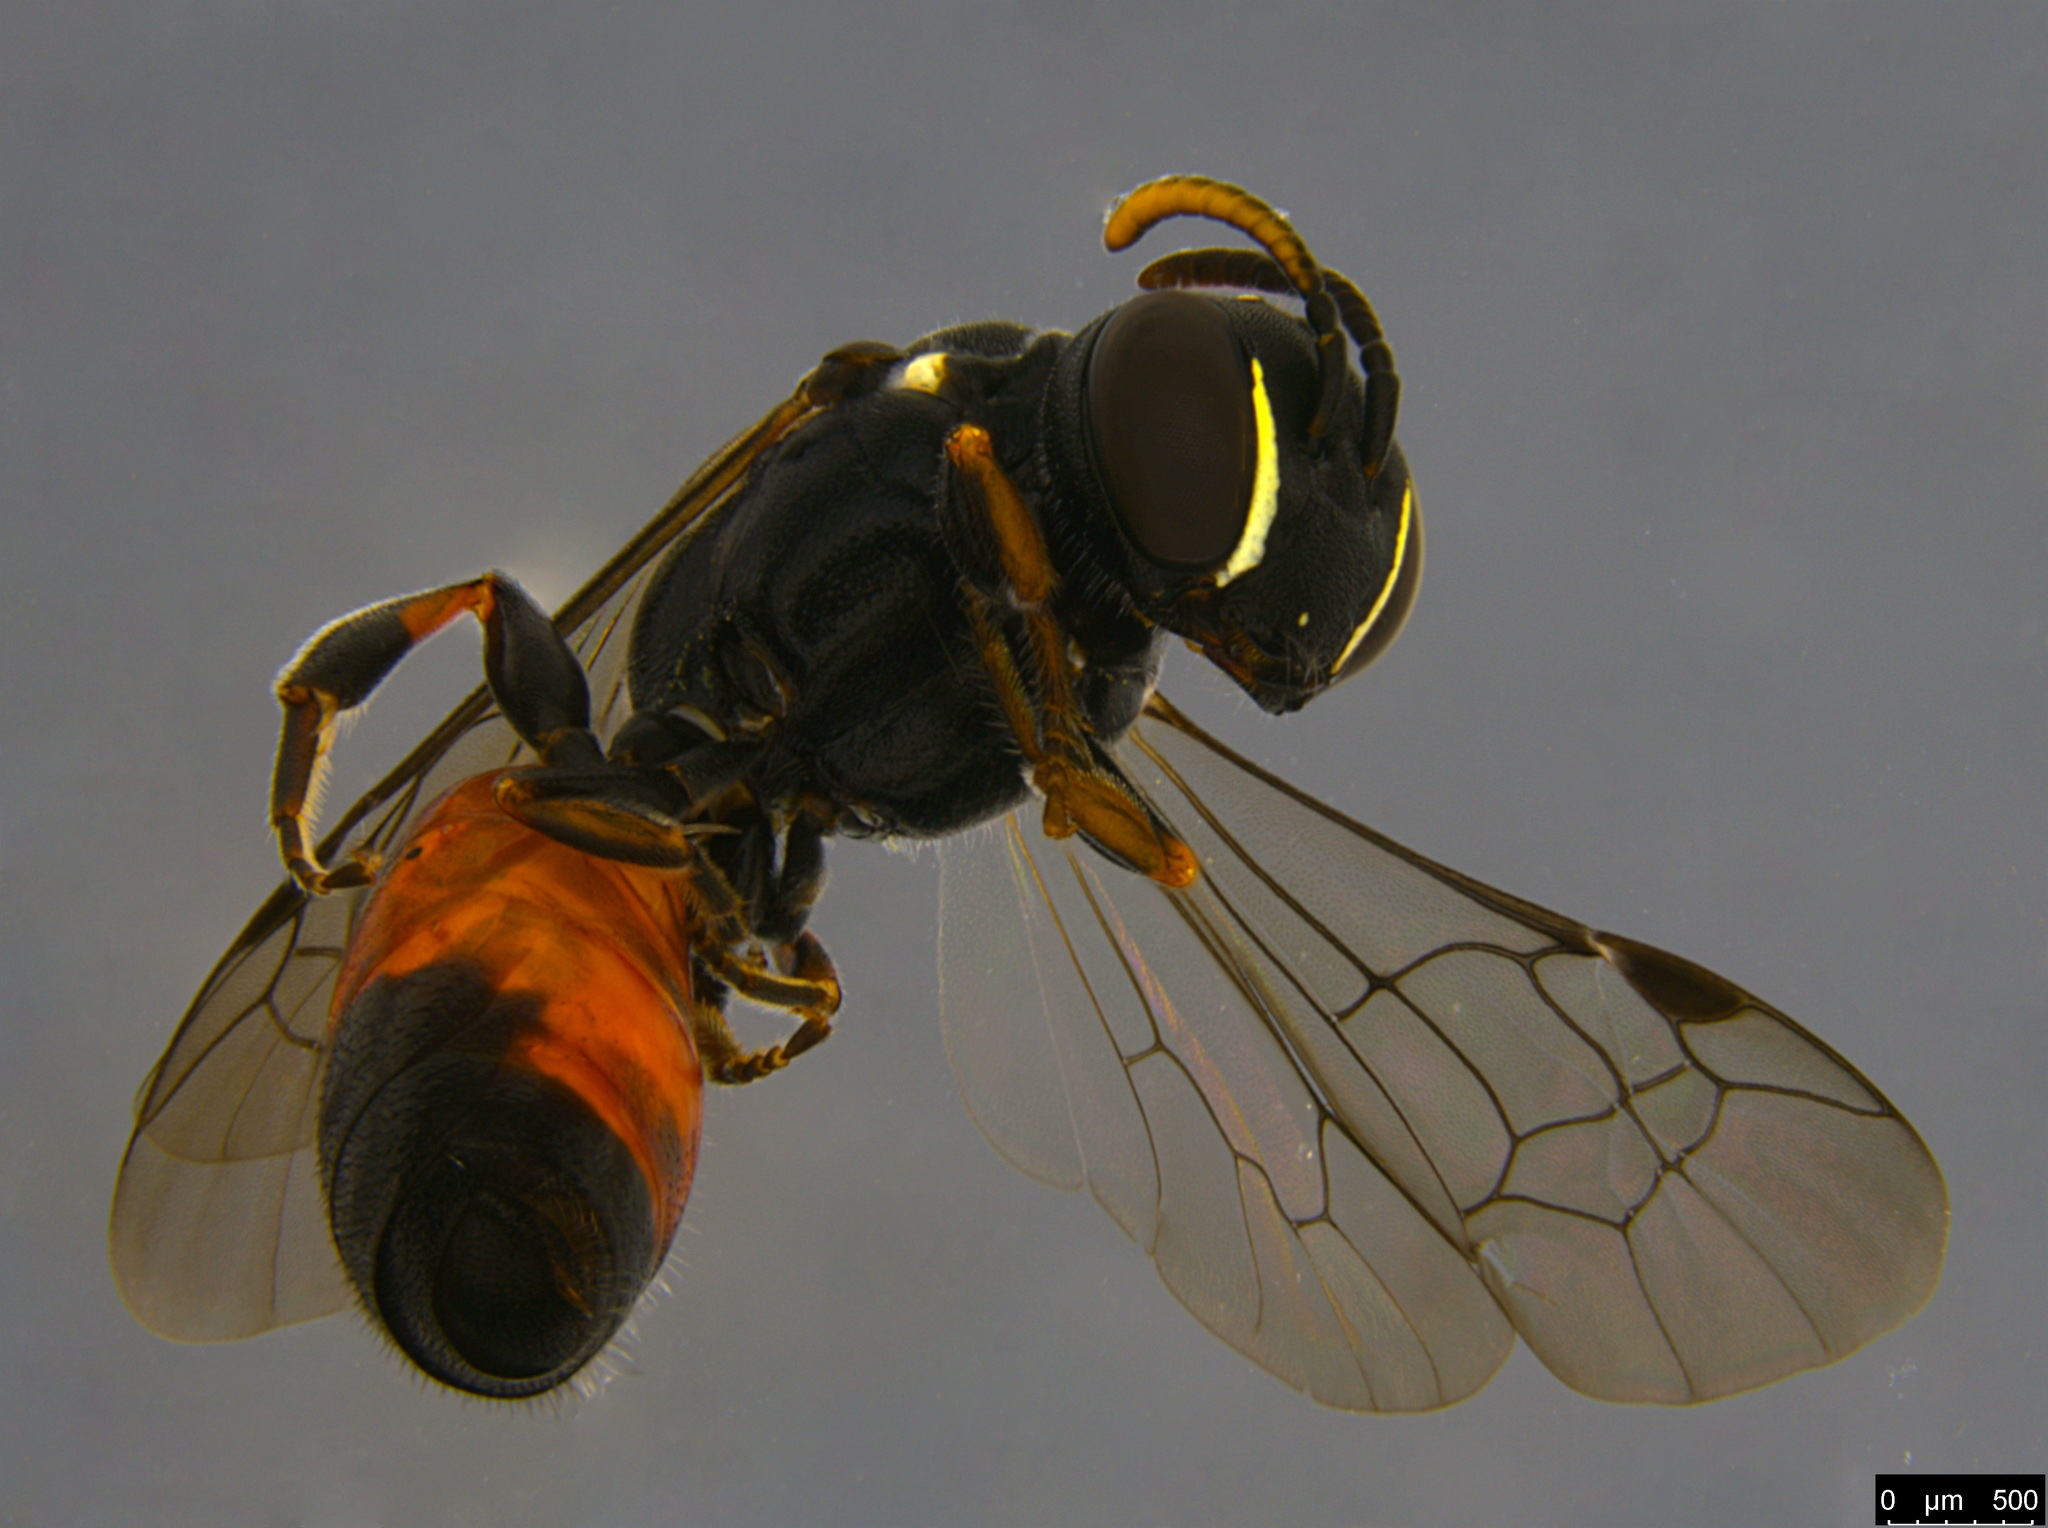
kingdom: Animalia
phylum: Arthropoda
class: Insecta
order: Hymenoptera
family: Colletidae
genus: Hylaeus
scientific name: Hylaeus littleri
